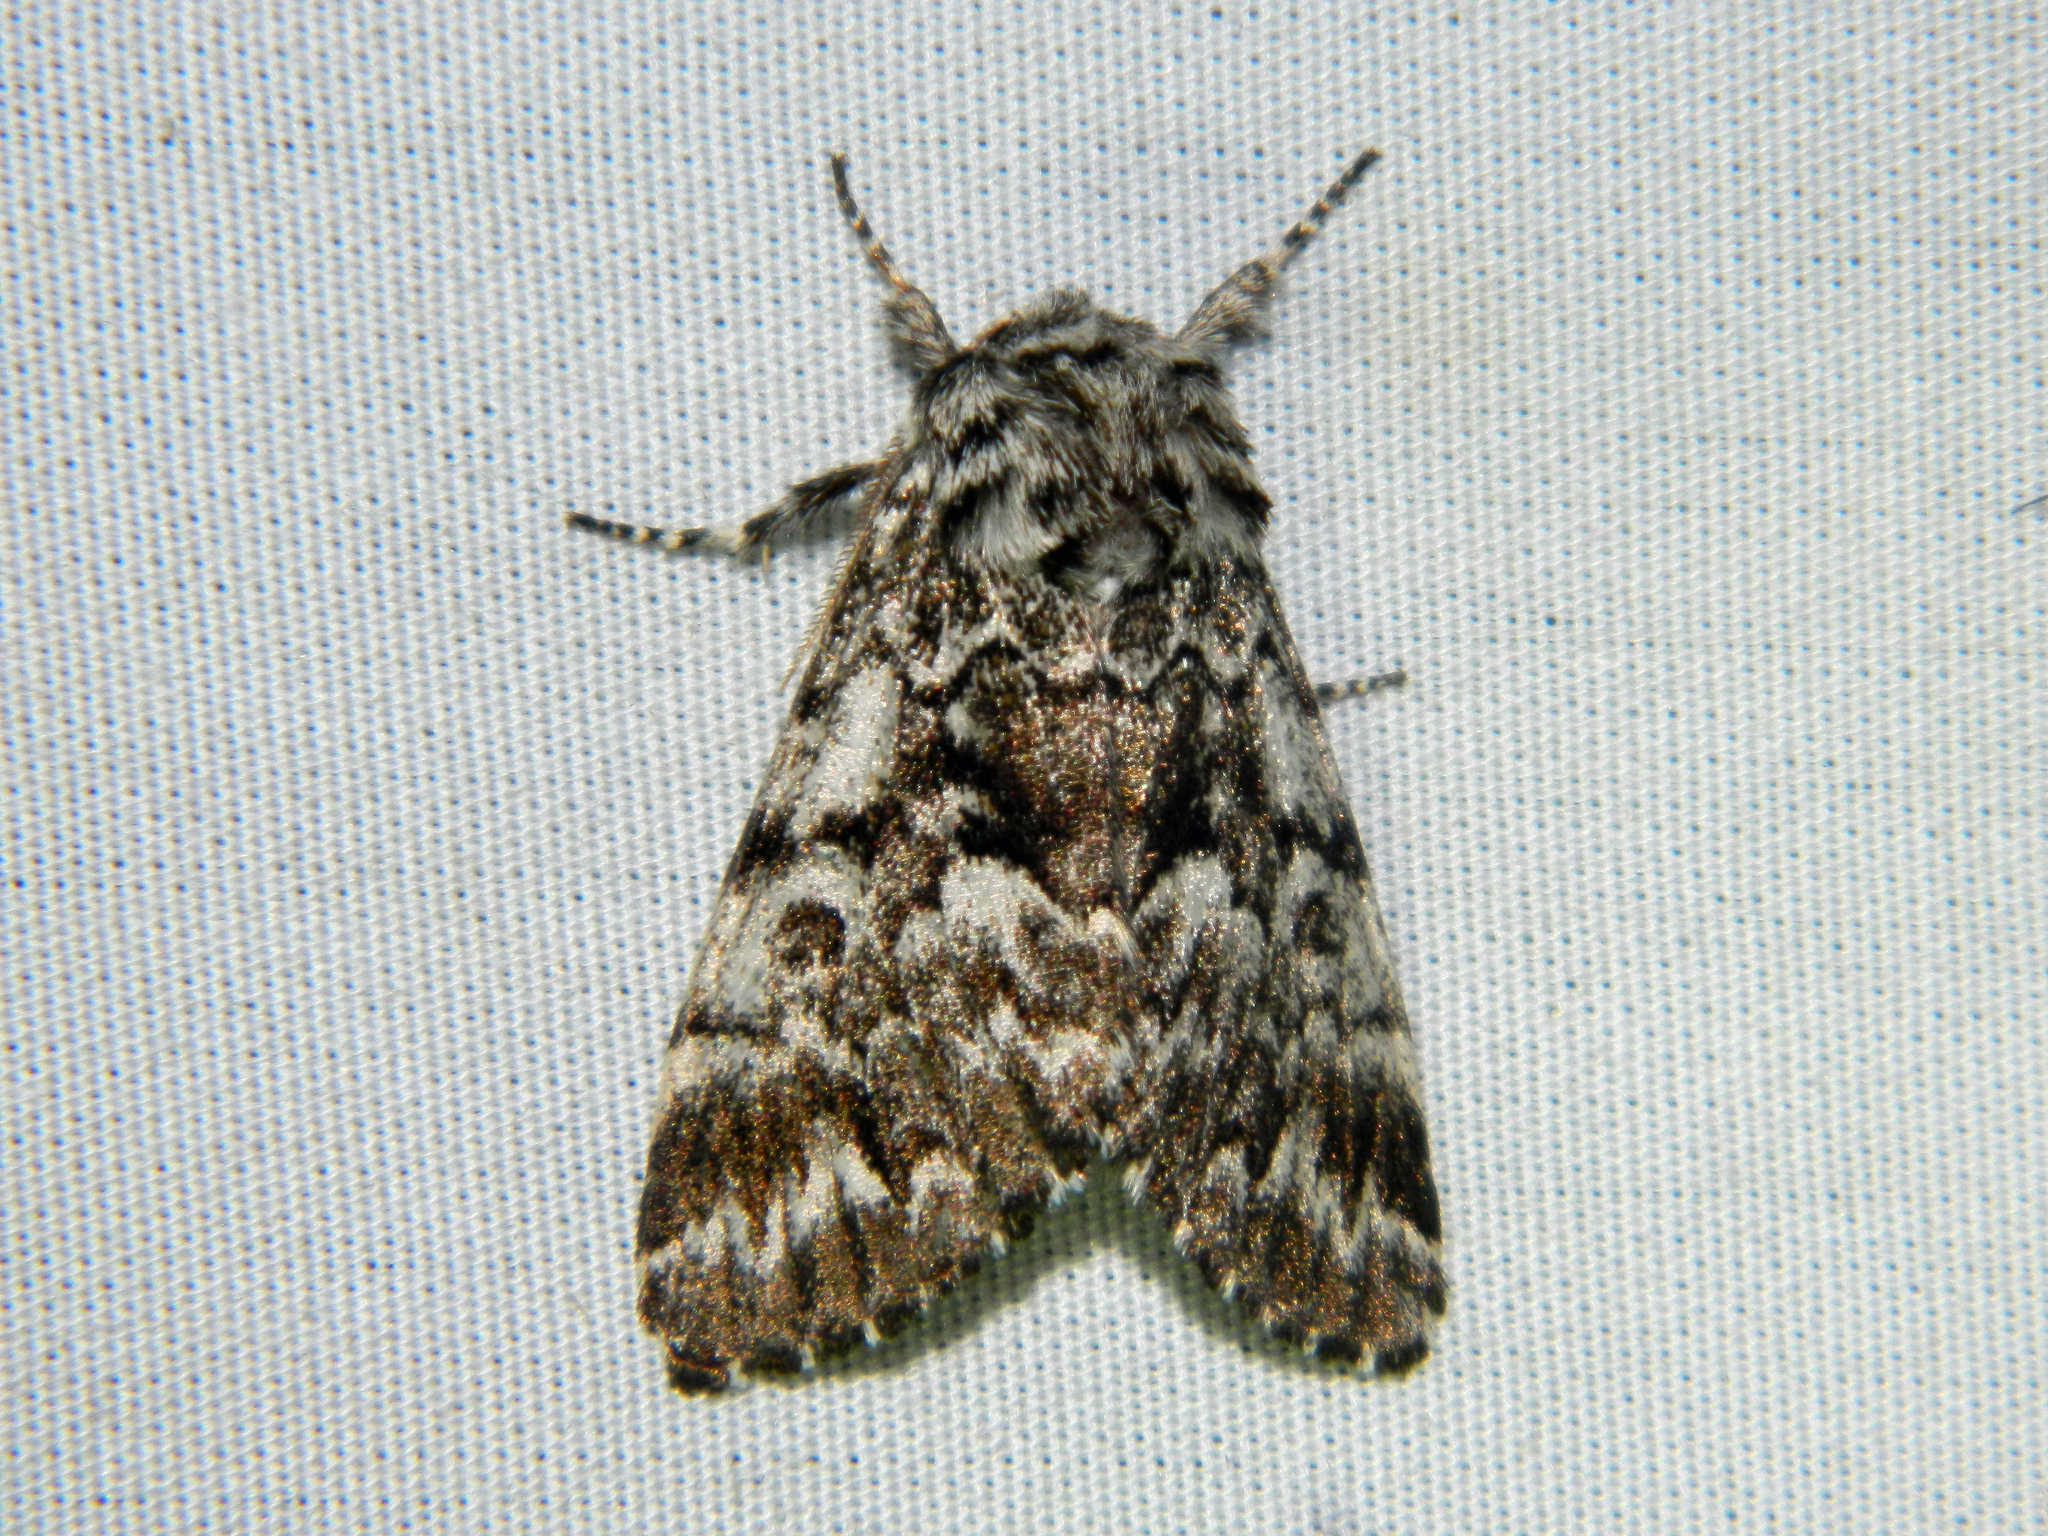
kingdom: Animalia
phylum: Arthropoda
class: Insecta
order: Lepidoptera
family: Noctuidae
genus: Panthea
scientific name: Panthea acronyctoides
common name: Black zigzag moth
